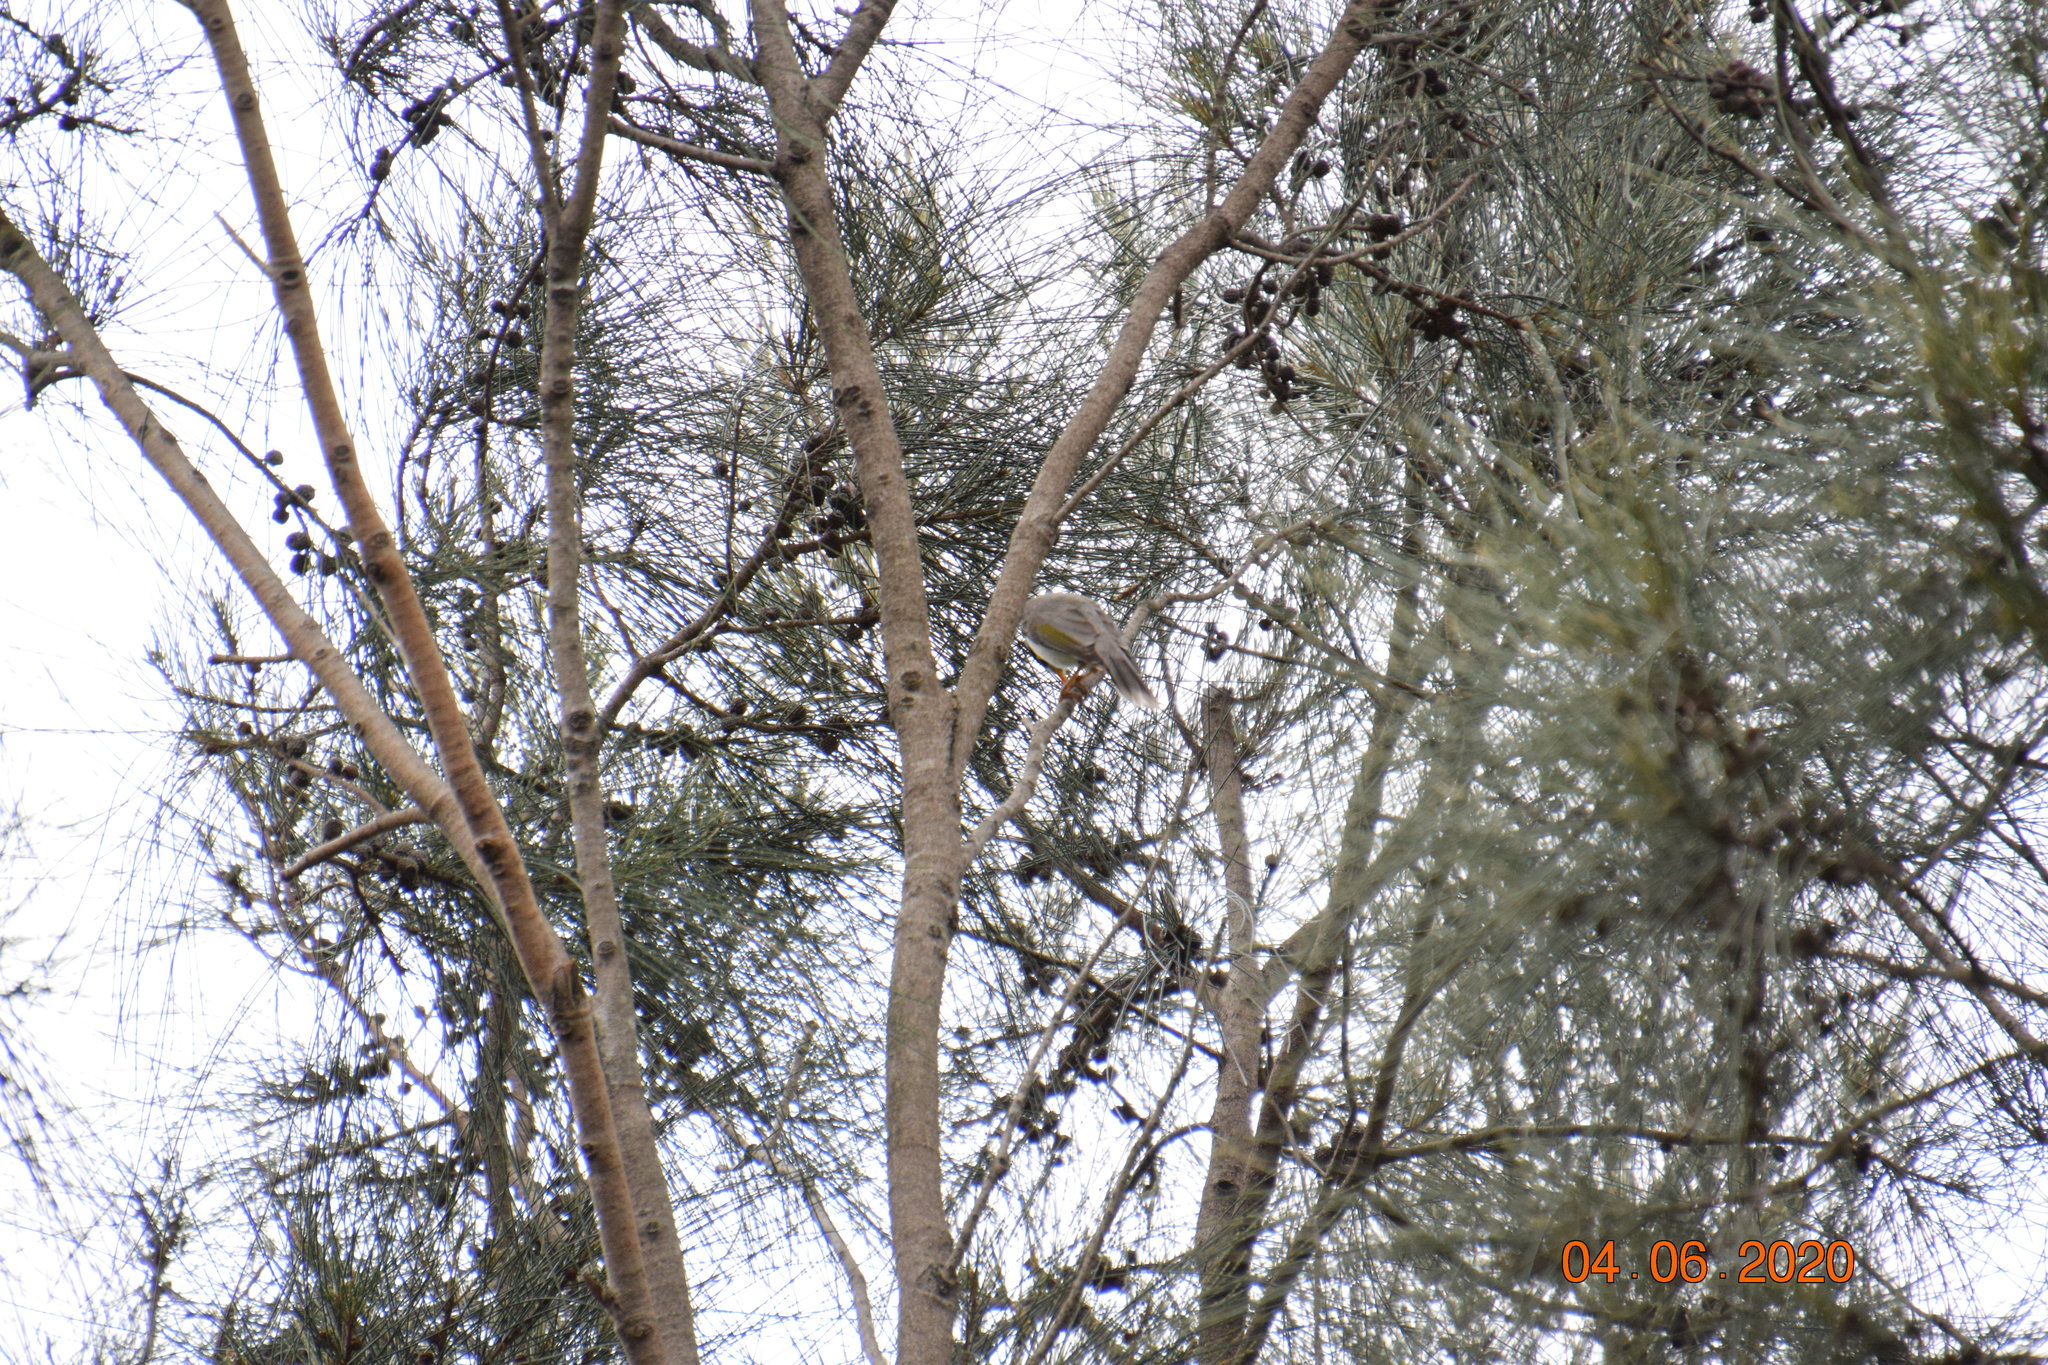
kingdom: Animalia
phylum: Chordata
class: Aves
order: Passeriformes
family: Meliphagidae
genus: Manorina
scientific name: Manorina melanocephala
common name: Noisy miner
